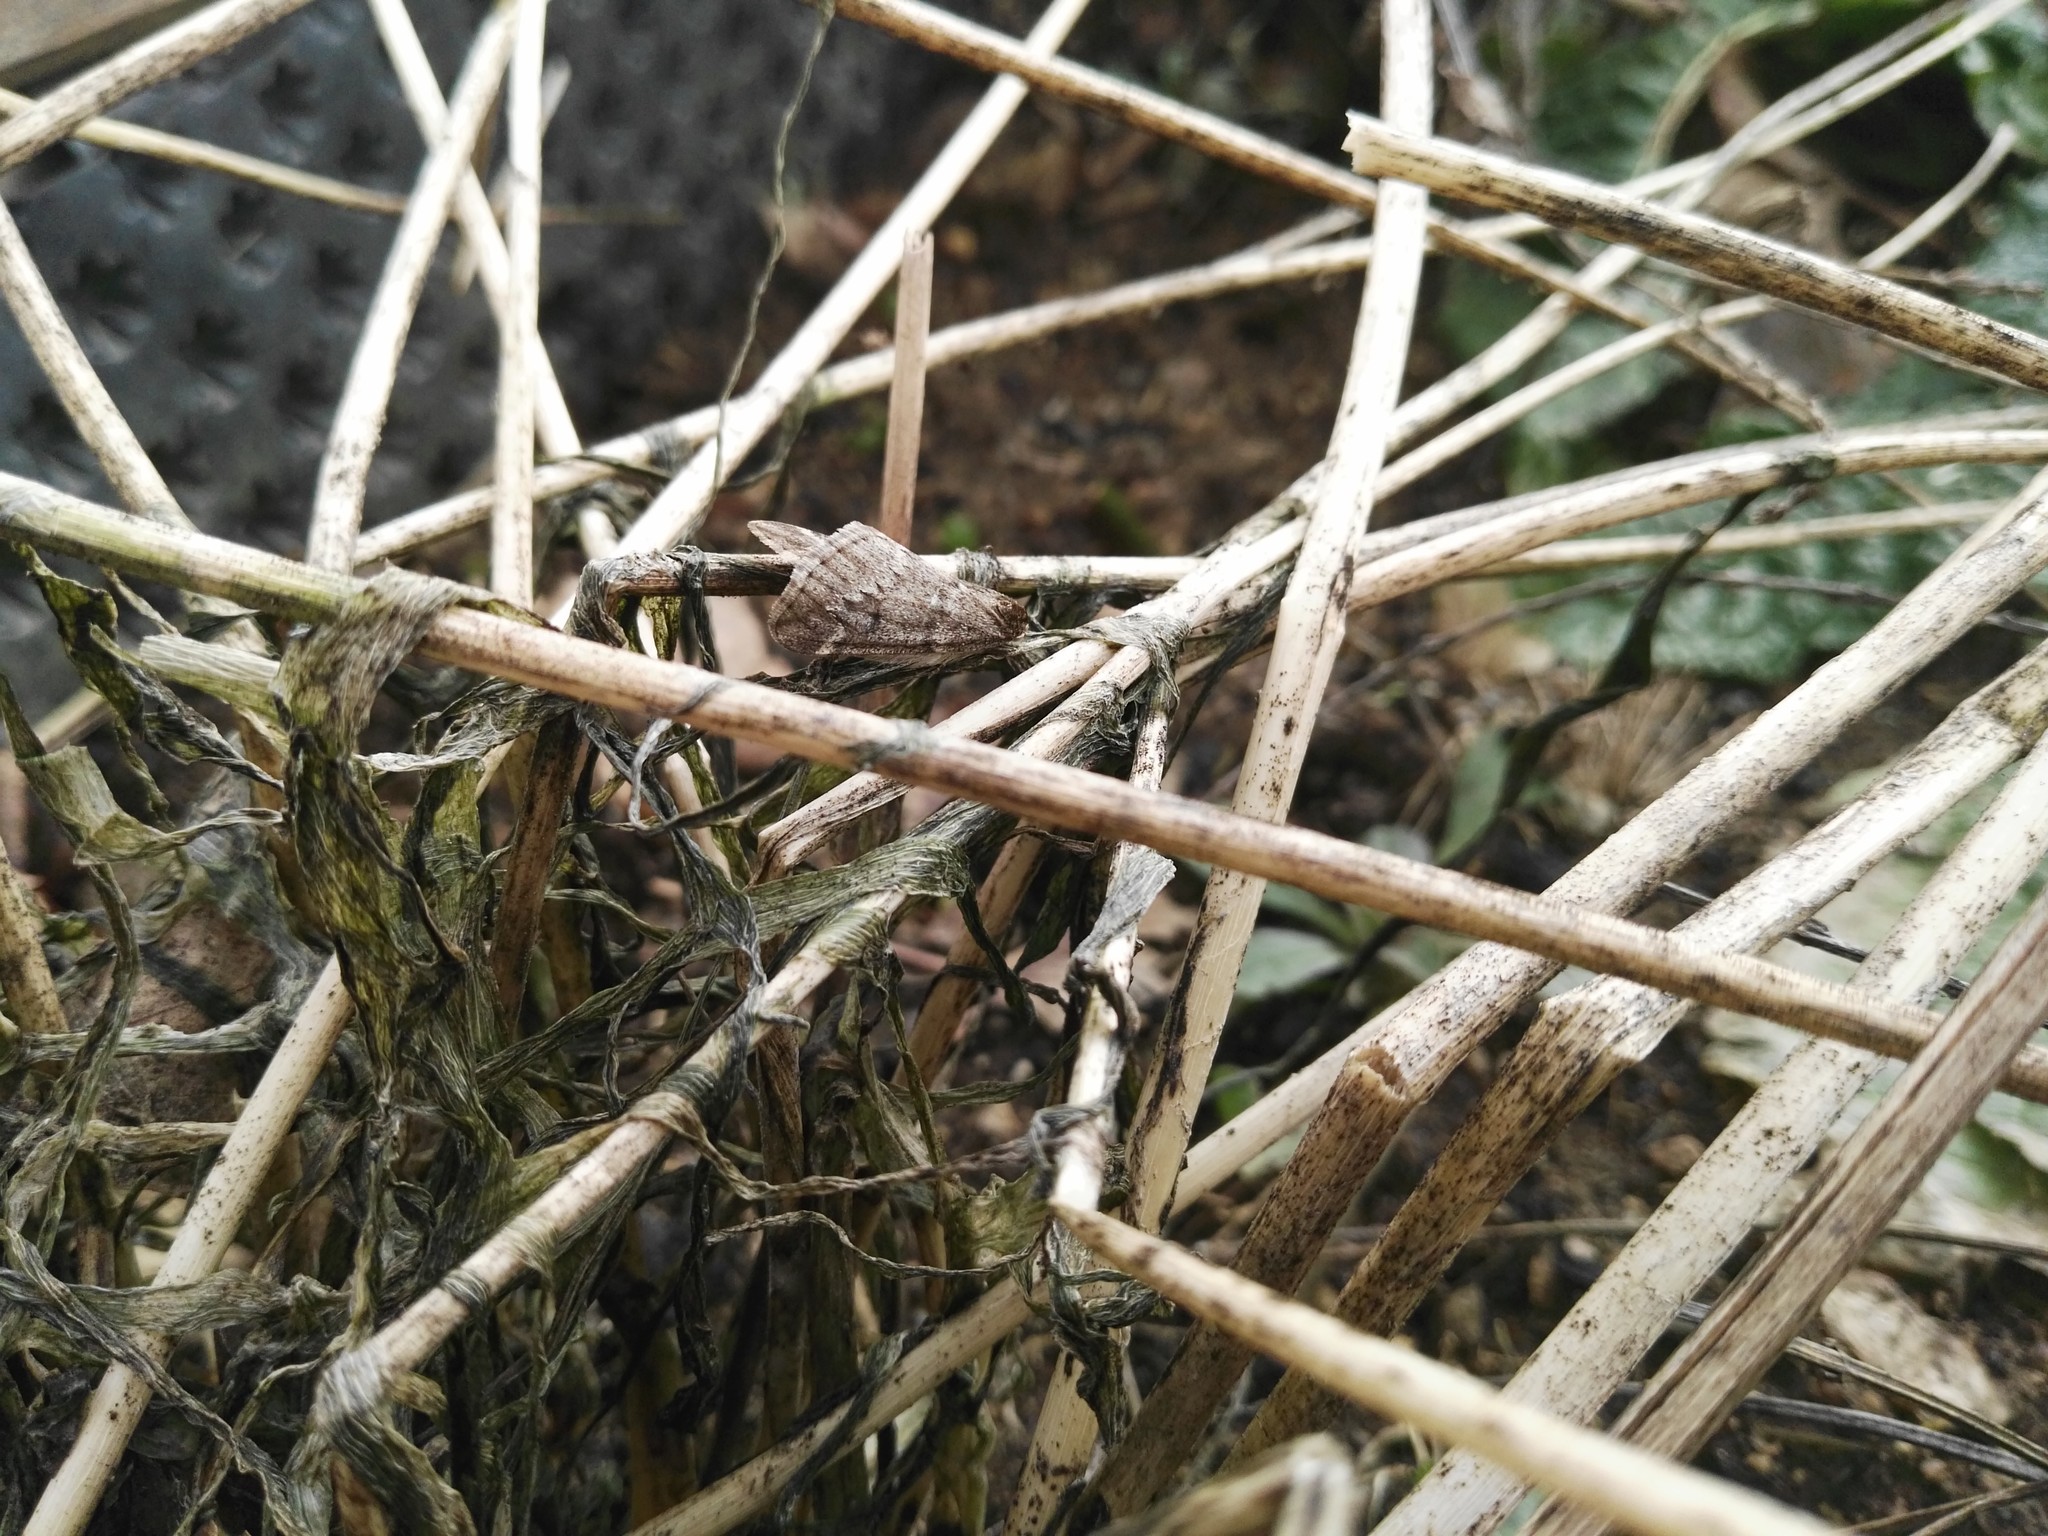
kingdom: Animalia
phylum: Arthropoda
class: Insecta
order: Lepidoptera
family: Geometridae
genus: Alsophila
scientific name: Alsophila aescularia
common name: March moth
